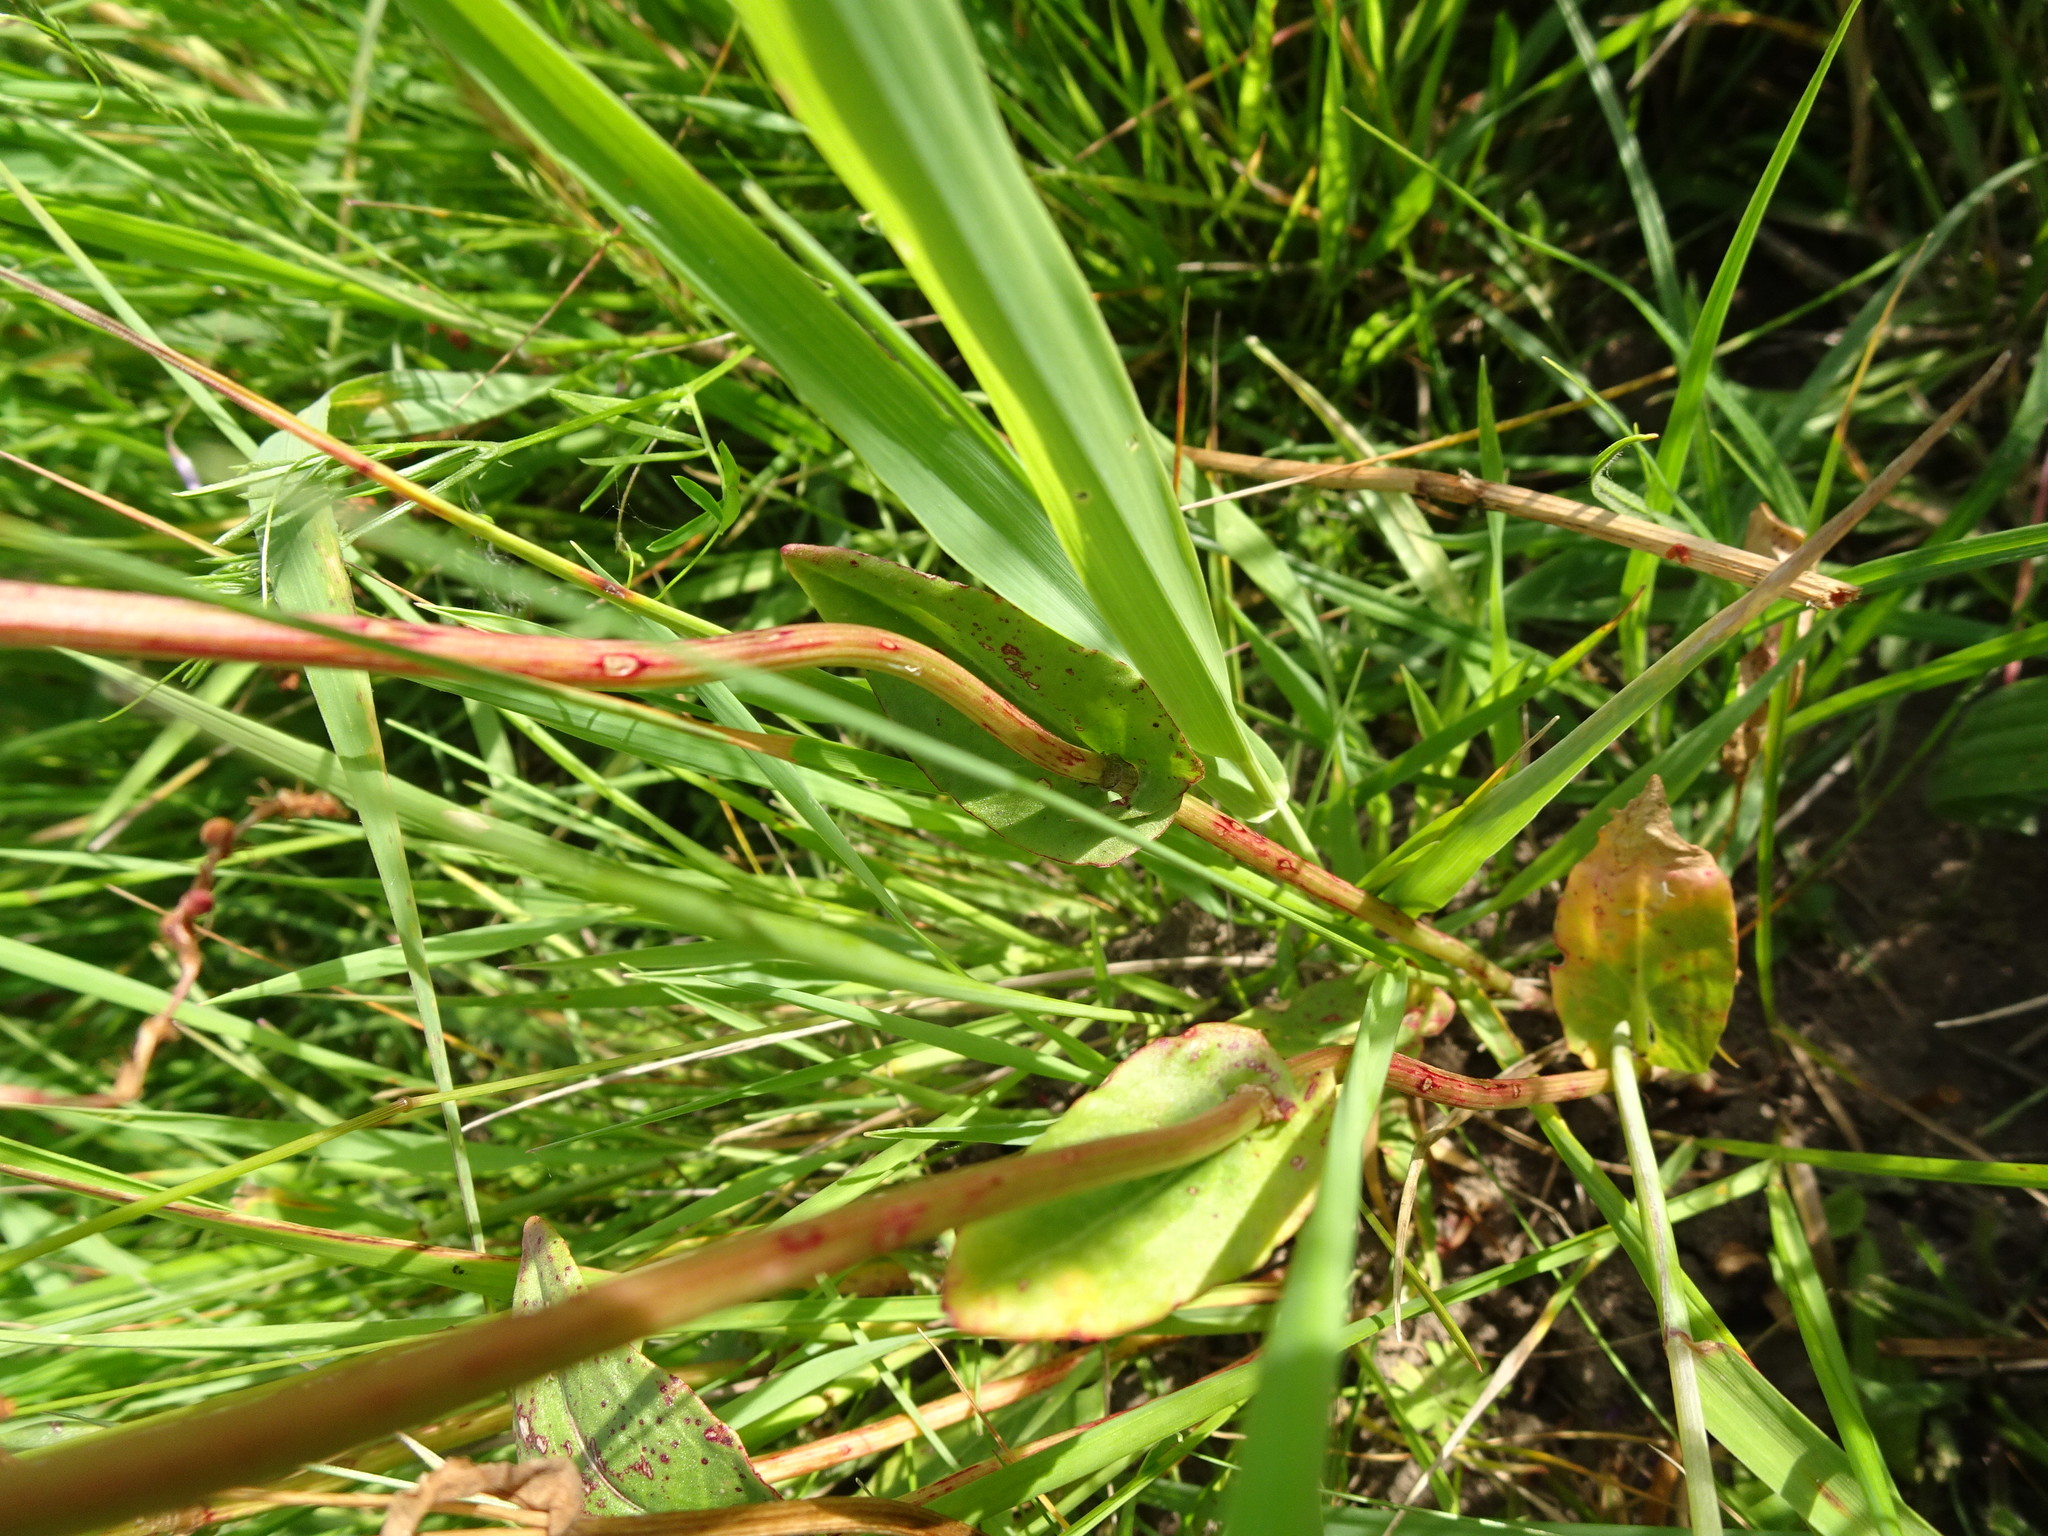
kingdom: Plantae
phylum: Tracheophyta
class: Magnoliopsida
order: Caryophyllales
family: Polygonaceae
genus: Rumex
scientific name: Rumex acetosa
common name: Garden sorrel
